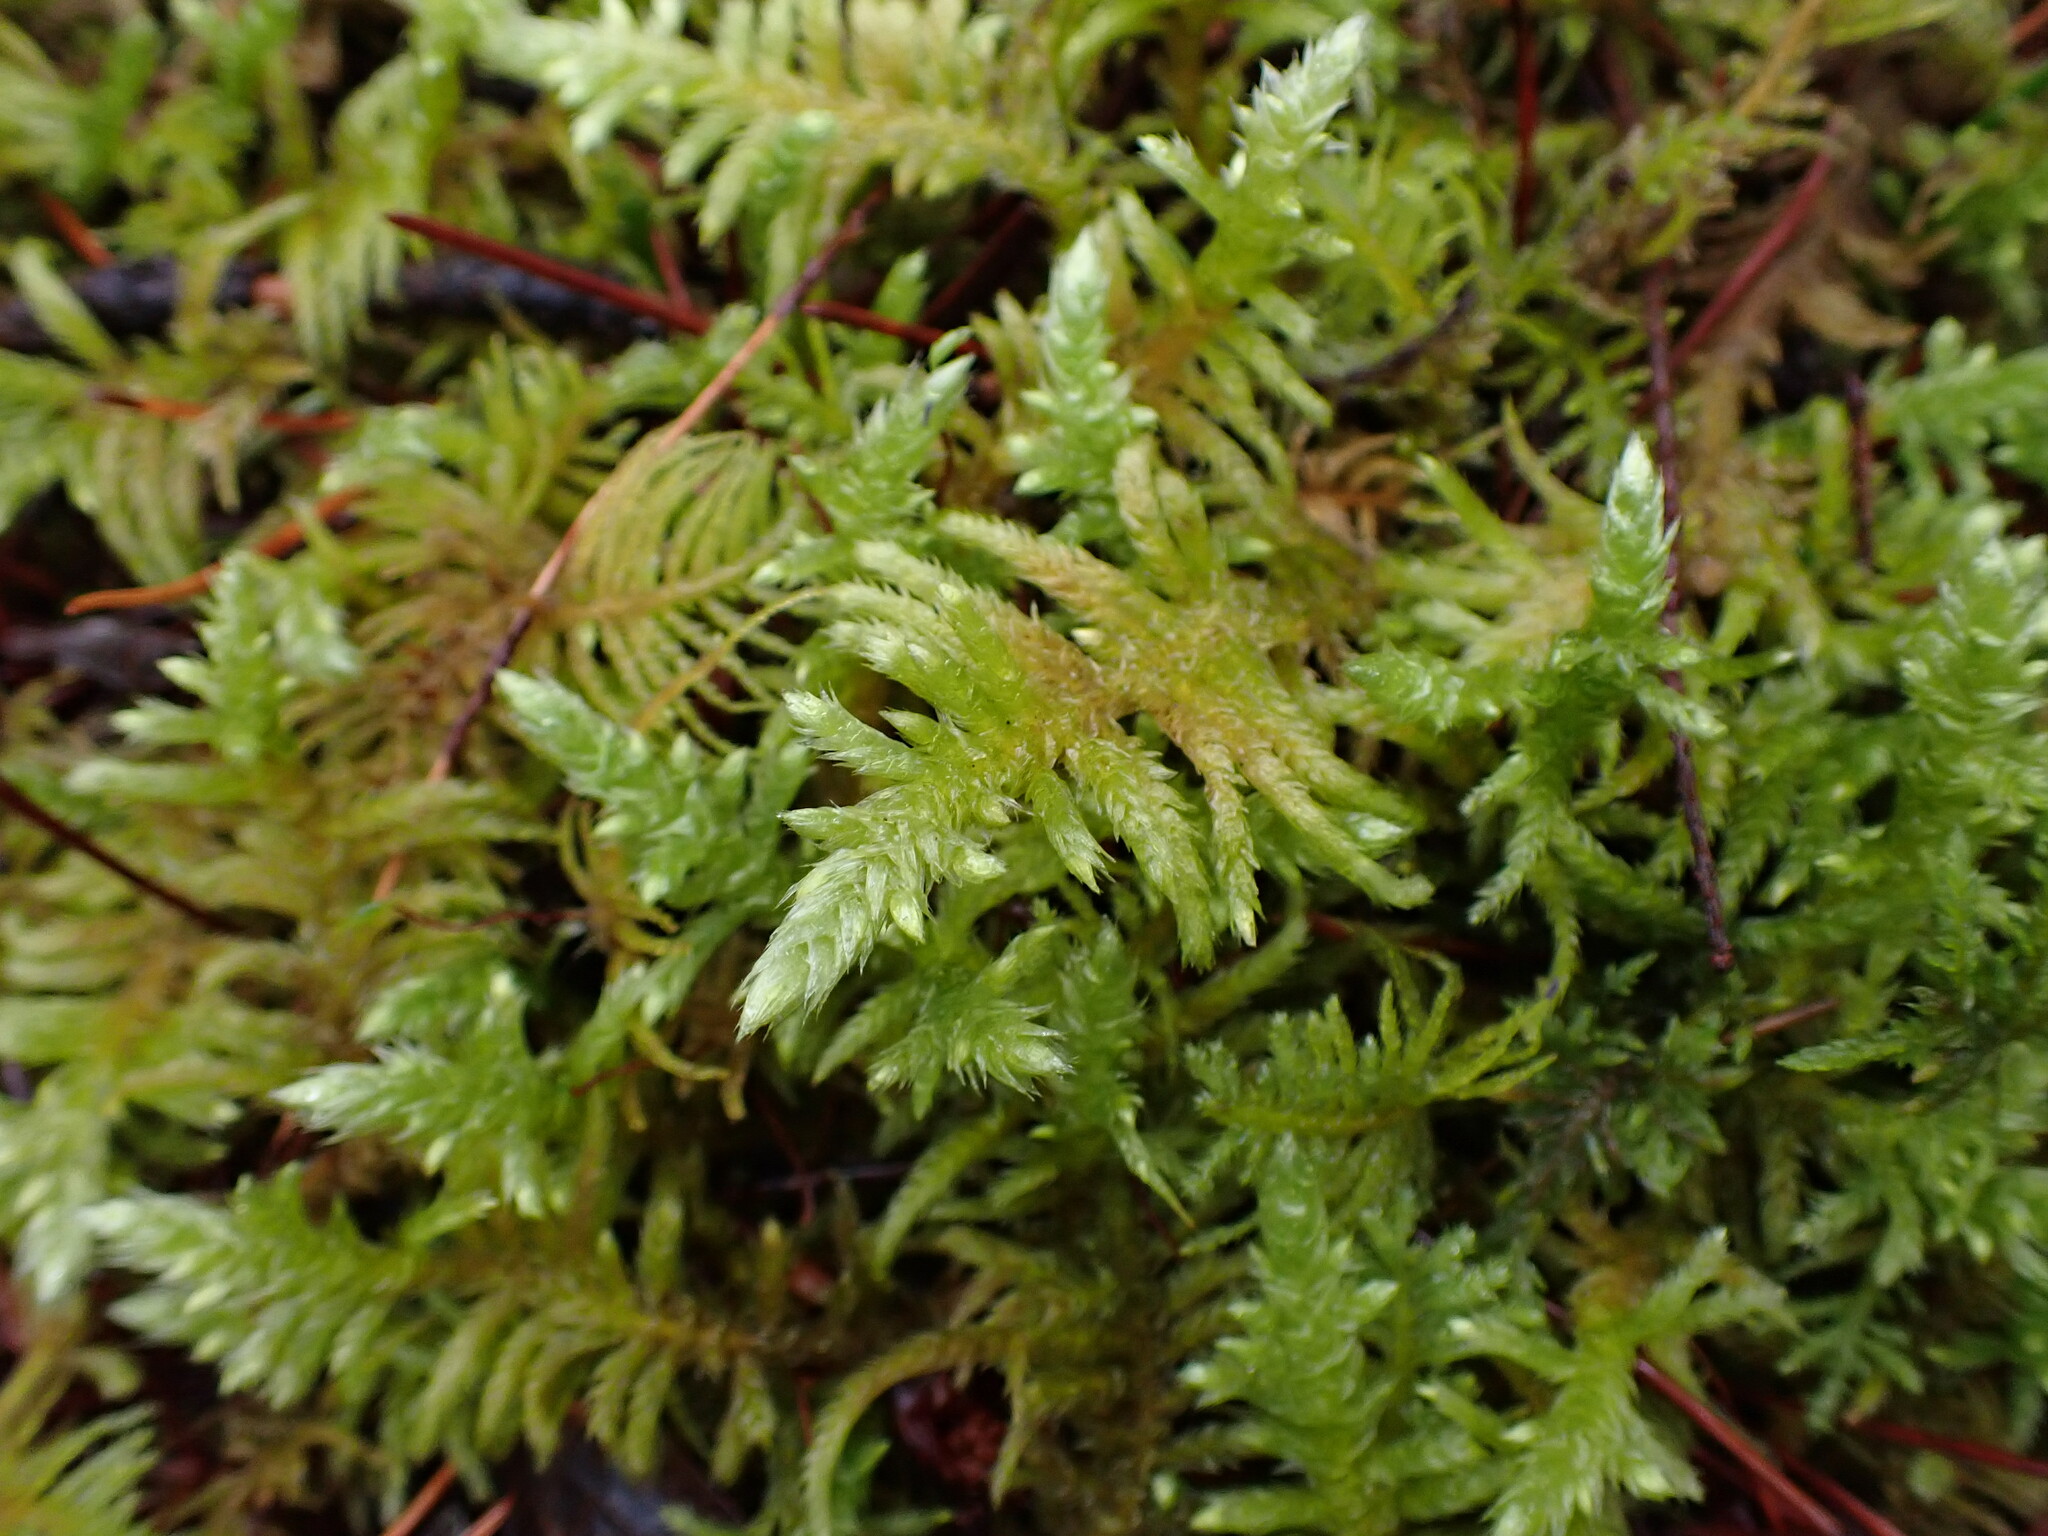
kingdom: Plantae
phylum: Bryophyta
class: Bryopsida
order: Hypnales
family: Brachytheciaceae
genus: Homalothecium
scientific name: Homalothecium megaptilum
